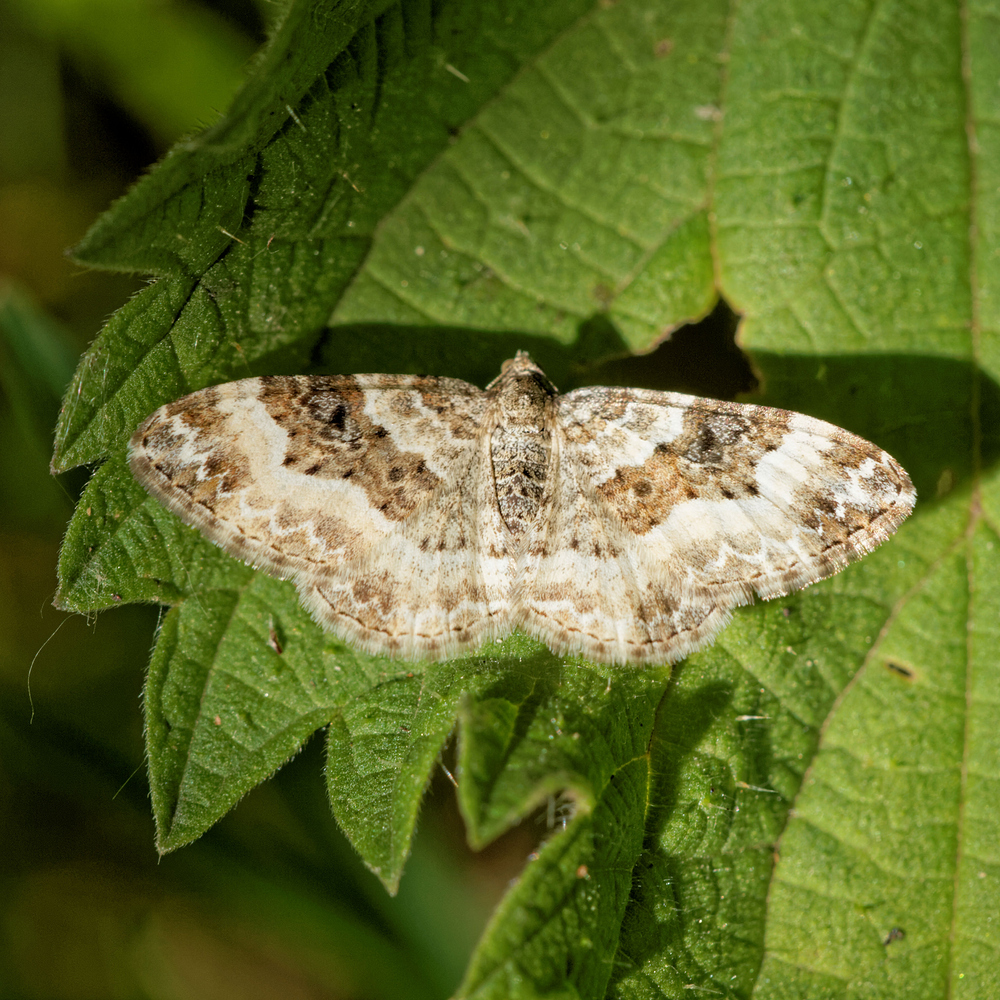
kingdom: Animalia
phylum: Arthropoda
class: Insecta
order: Lepidoptera
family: Geometridae
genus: Epirrhoe
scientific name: Epirrhoe rivata
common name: Wood carpet
